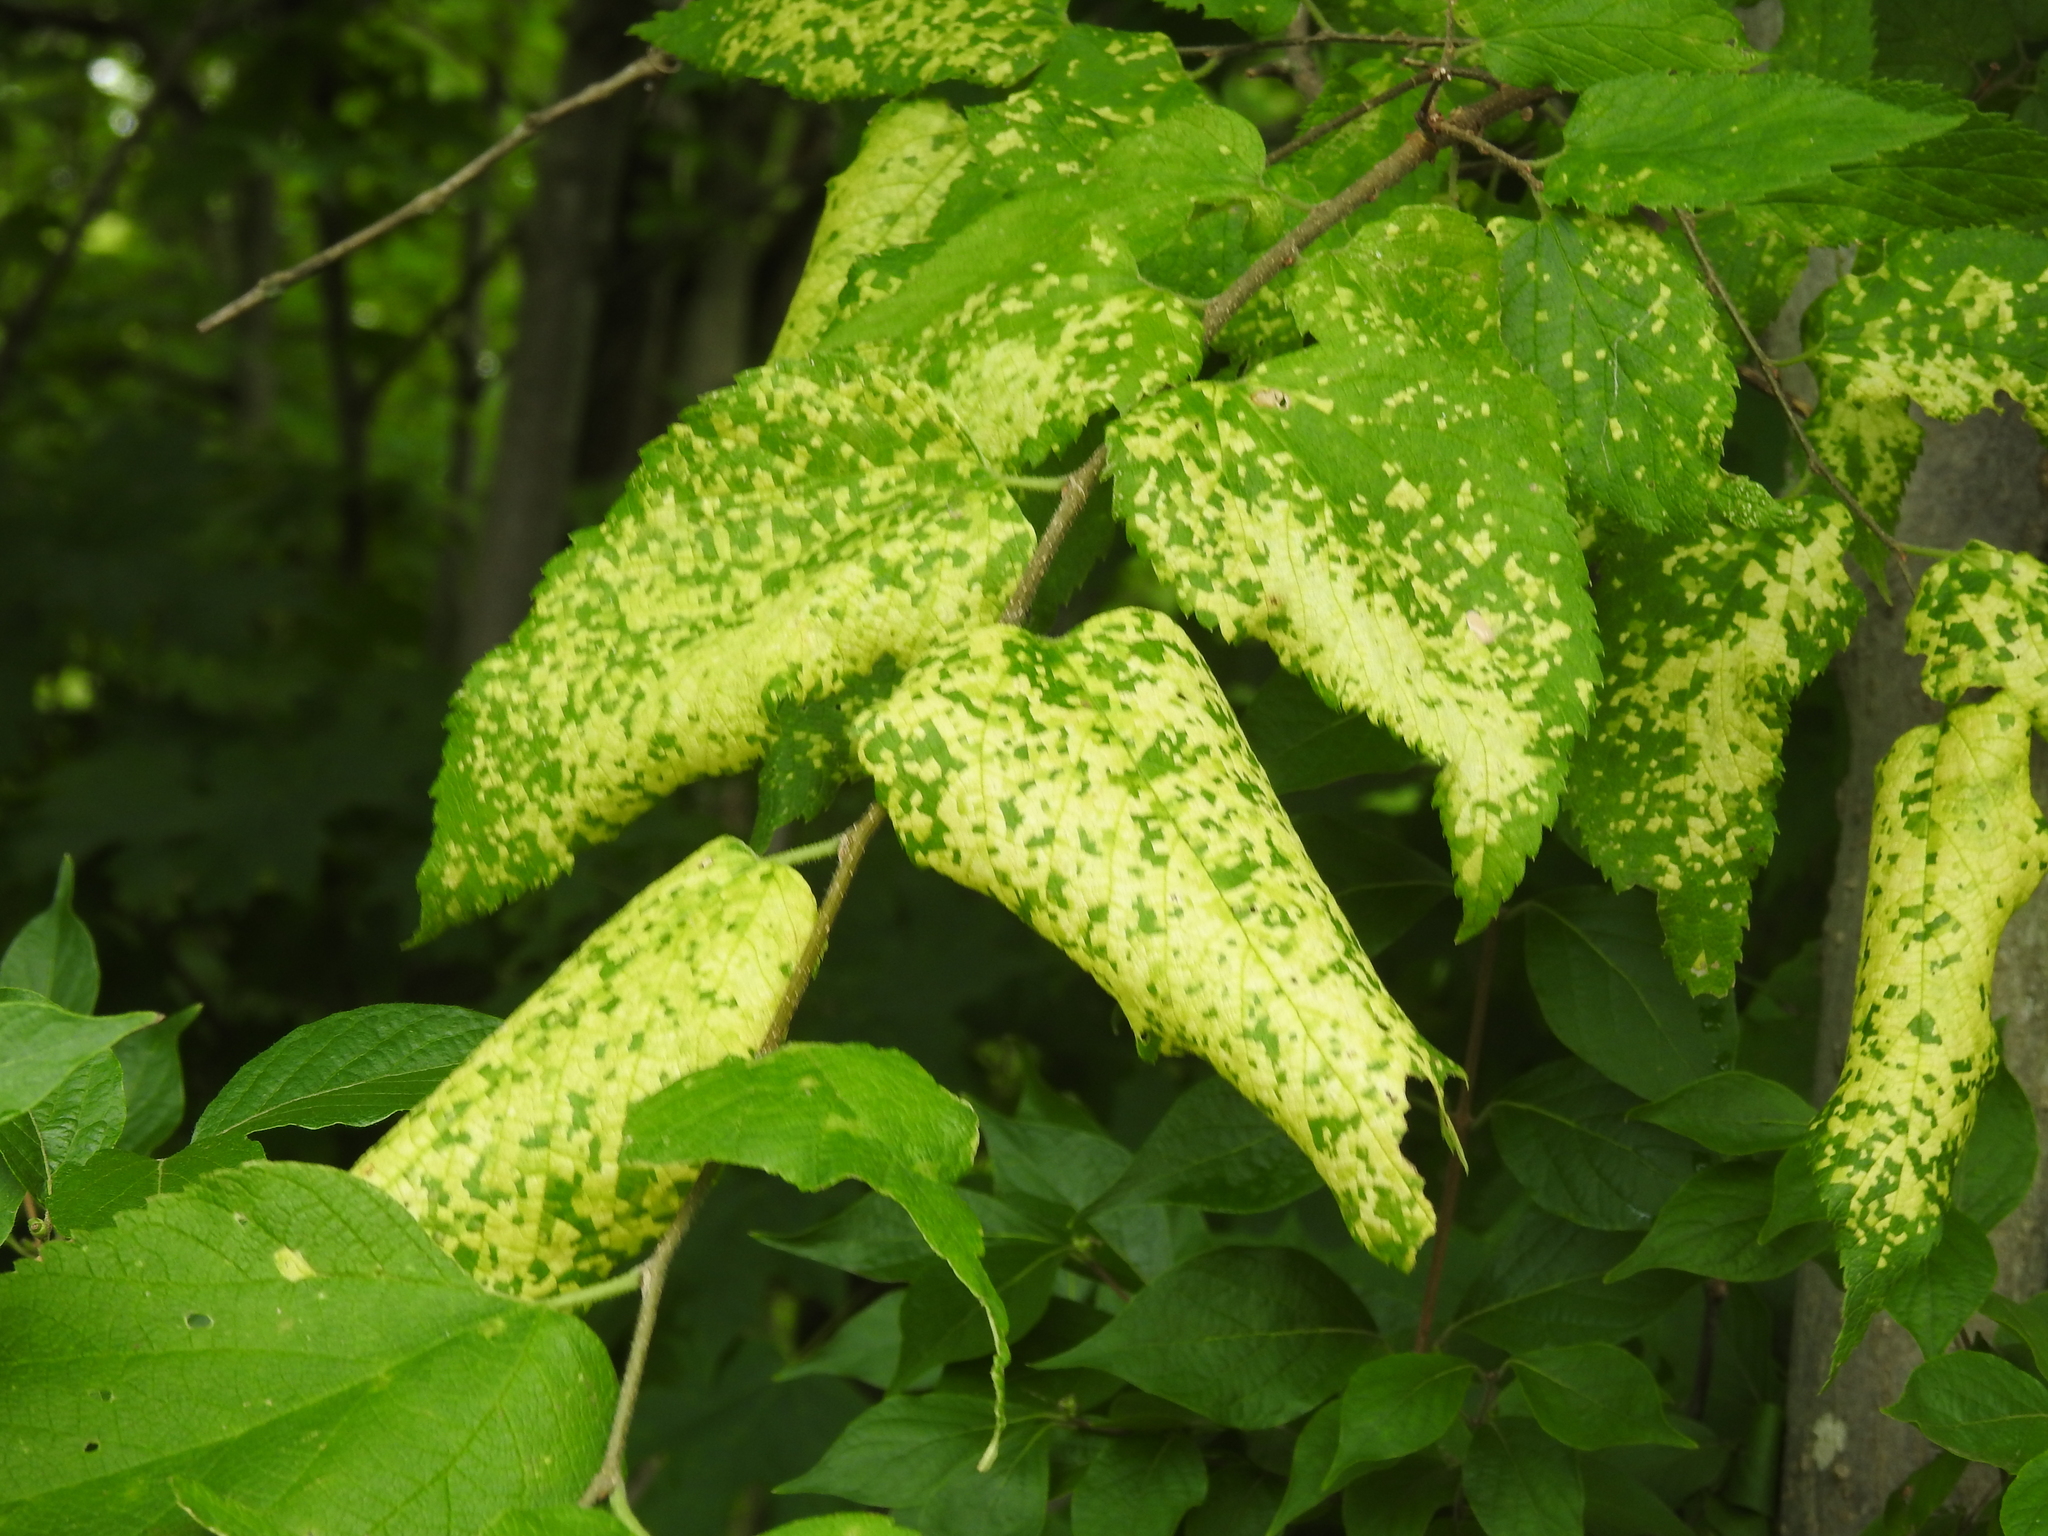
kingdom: Viruses
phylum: Kitrinoviricota
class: Alsuviricetes
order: Martellivirales
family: Closteroviridae
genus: Ampelovirus
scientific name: Ampelovirus
